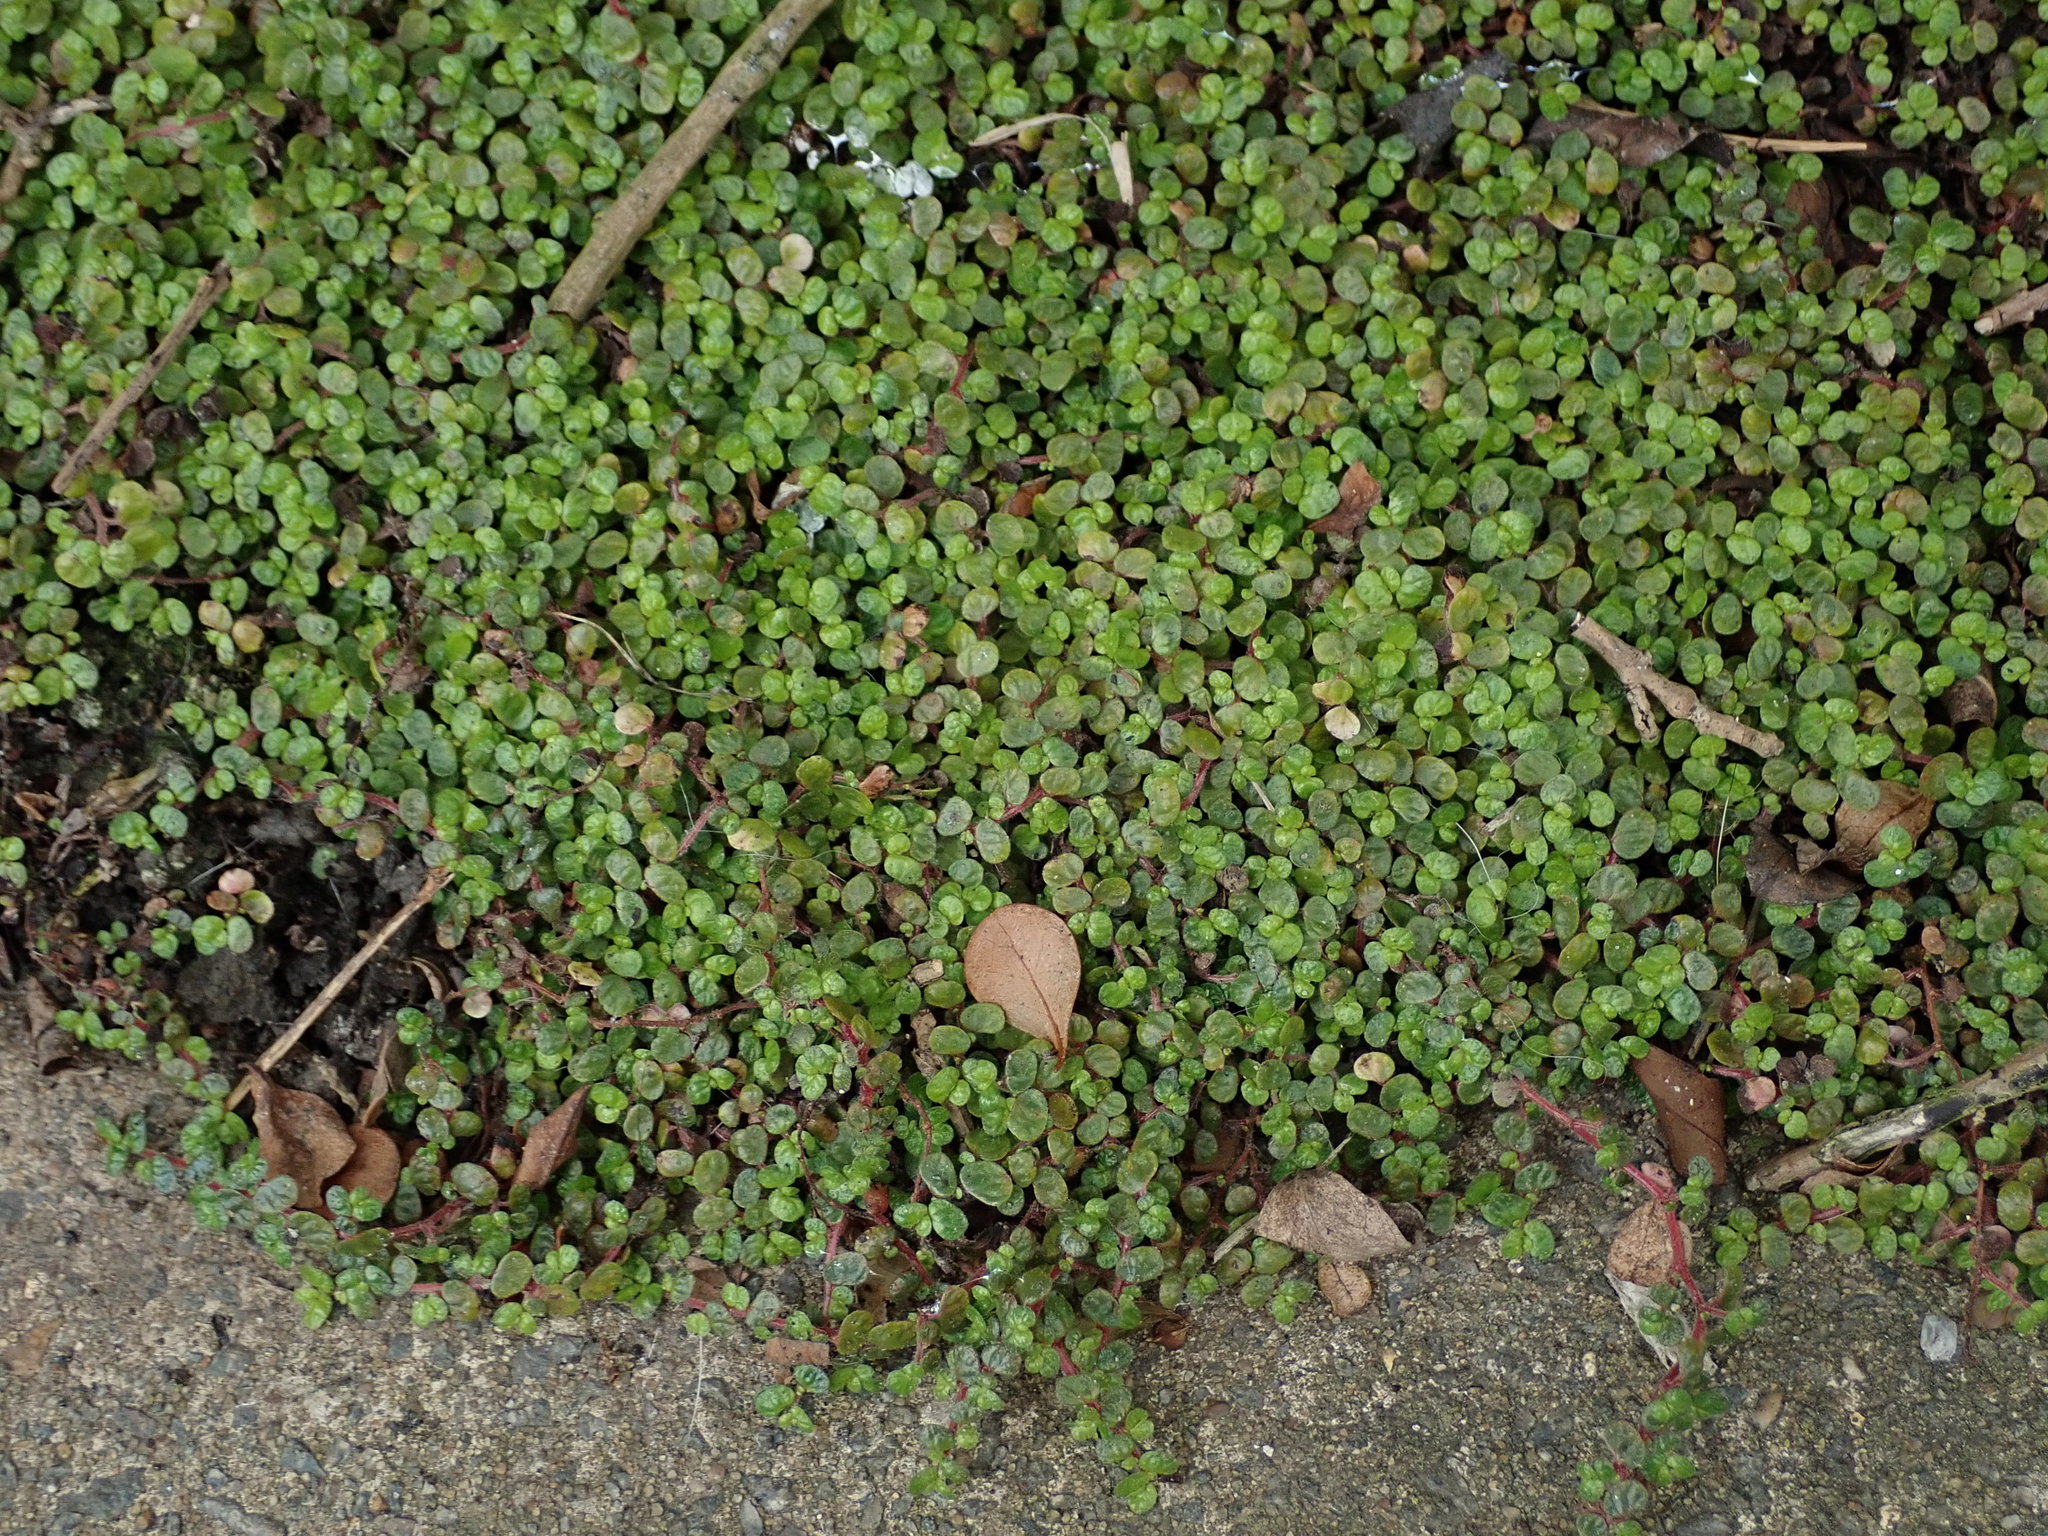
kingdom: Plantae
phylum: Tracheophyta
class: Magnoliopsida
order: Rosales
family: Urticaceae
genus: Soleirolia
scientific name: Soleirolia soleirolii
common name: Mind-your-own-business
